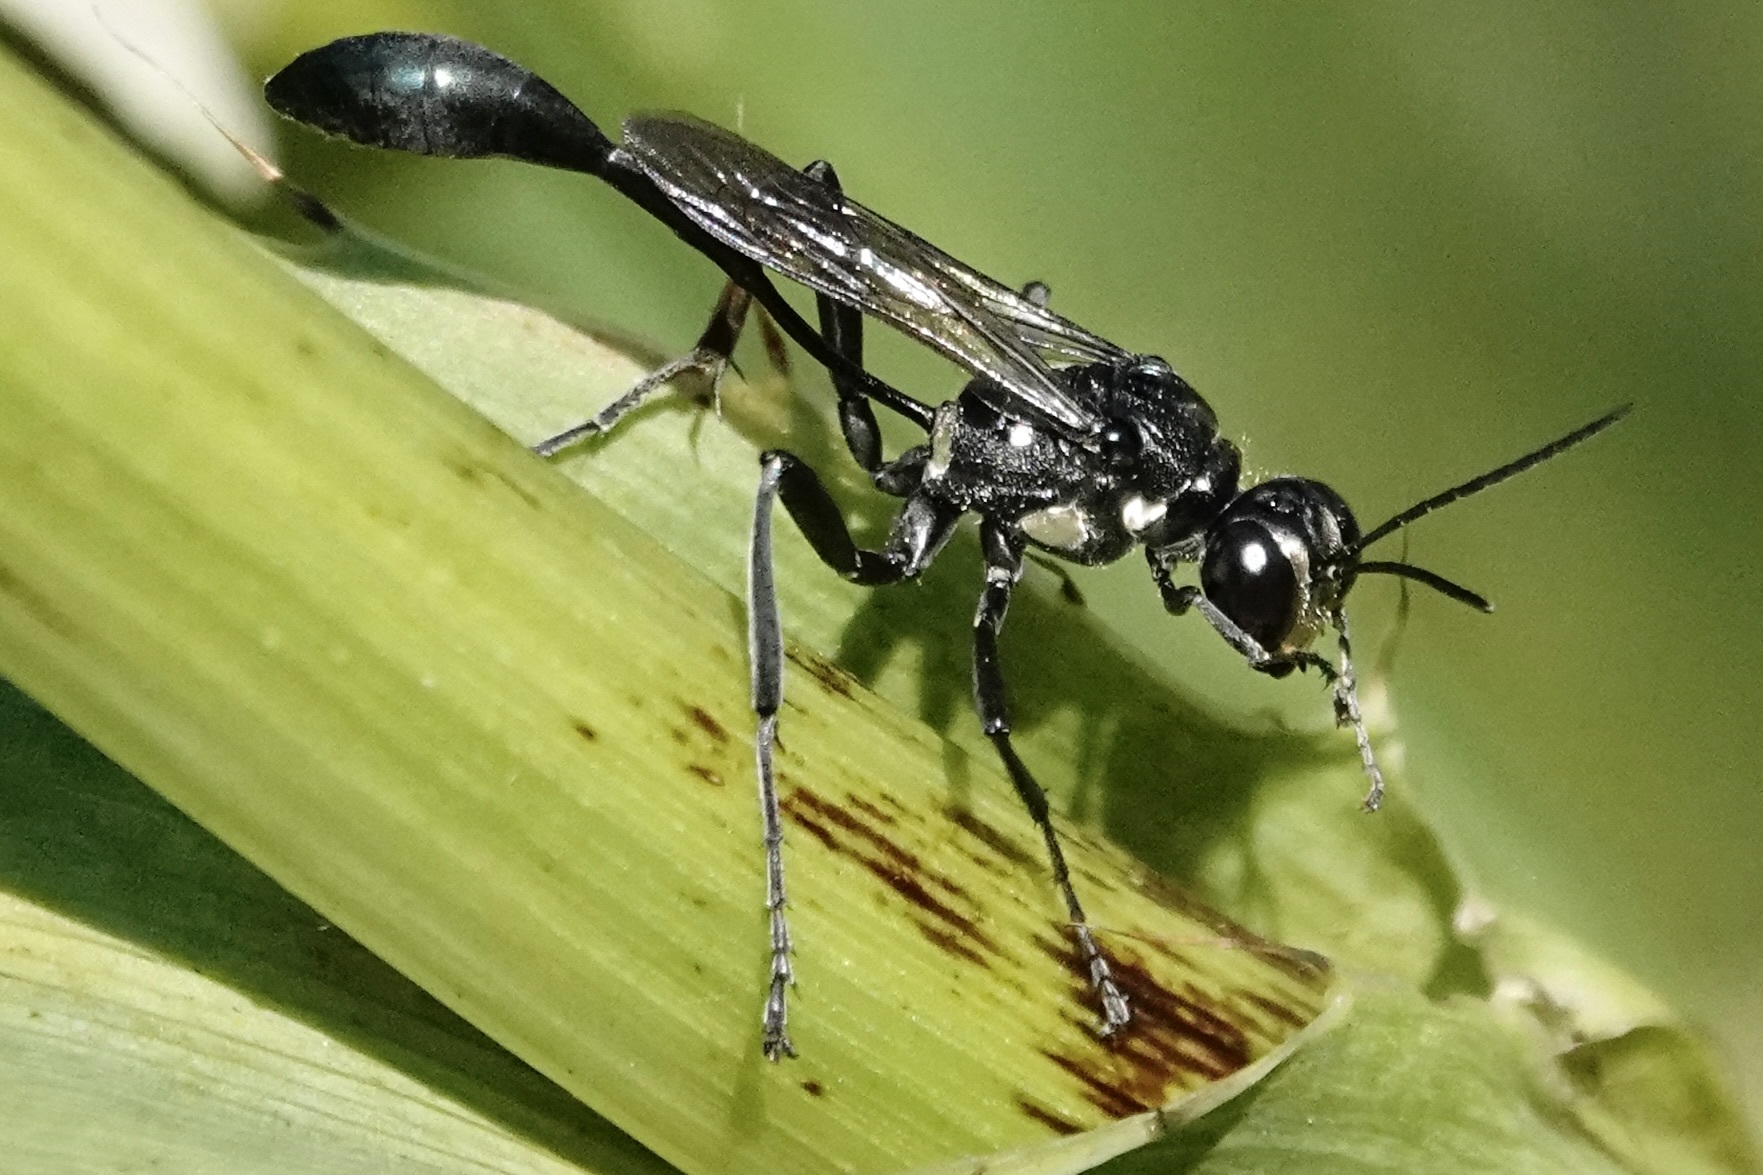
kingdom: Animalia
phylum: Arthropoda
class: Insecta
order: Hymenoptera
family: Sphecidae
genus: Eremnophila
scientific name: Eremnophila aureonotata
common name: Gold-marked thread-waisted wasp
